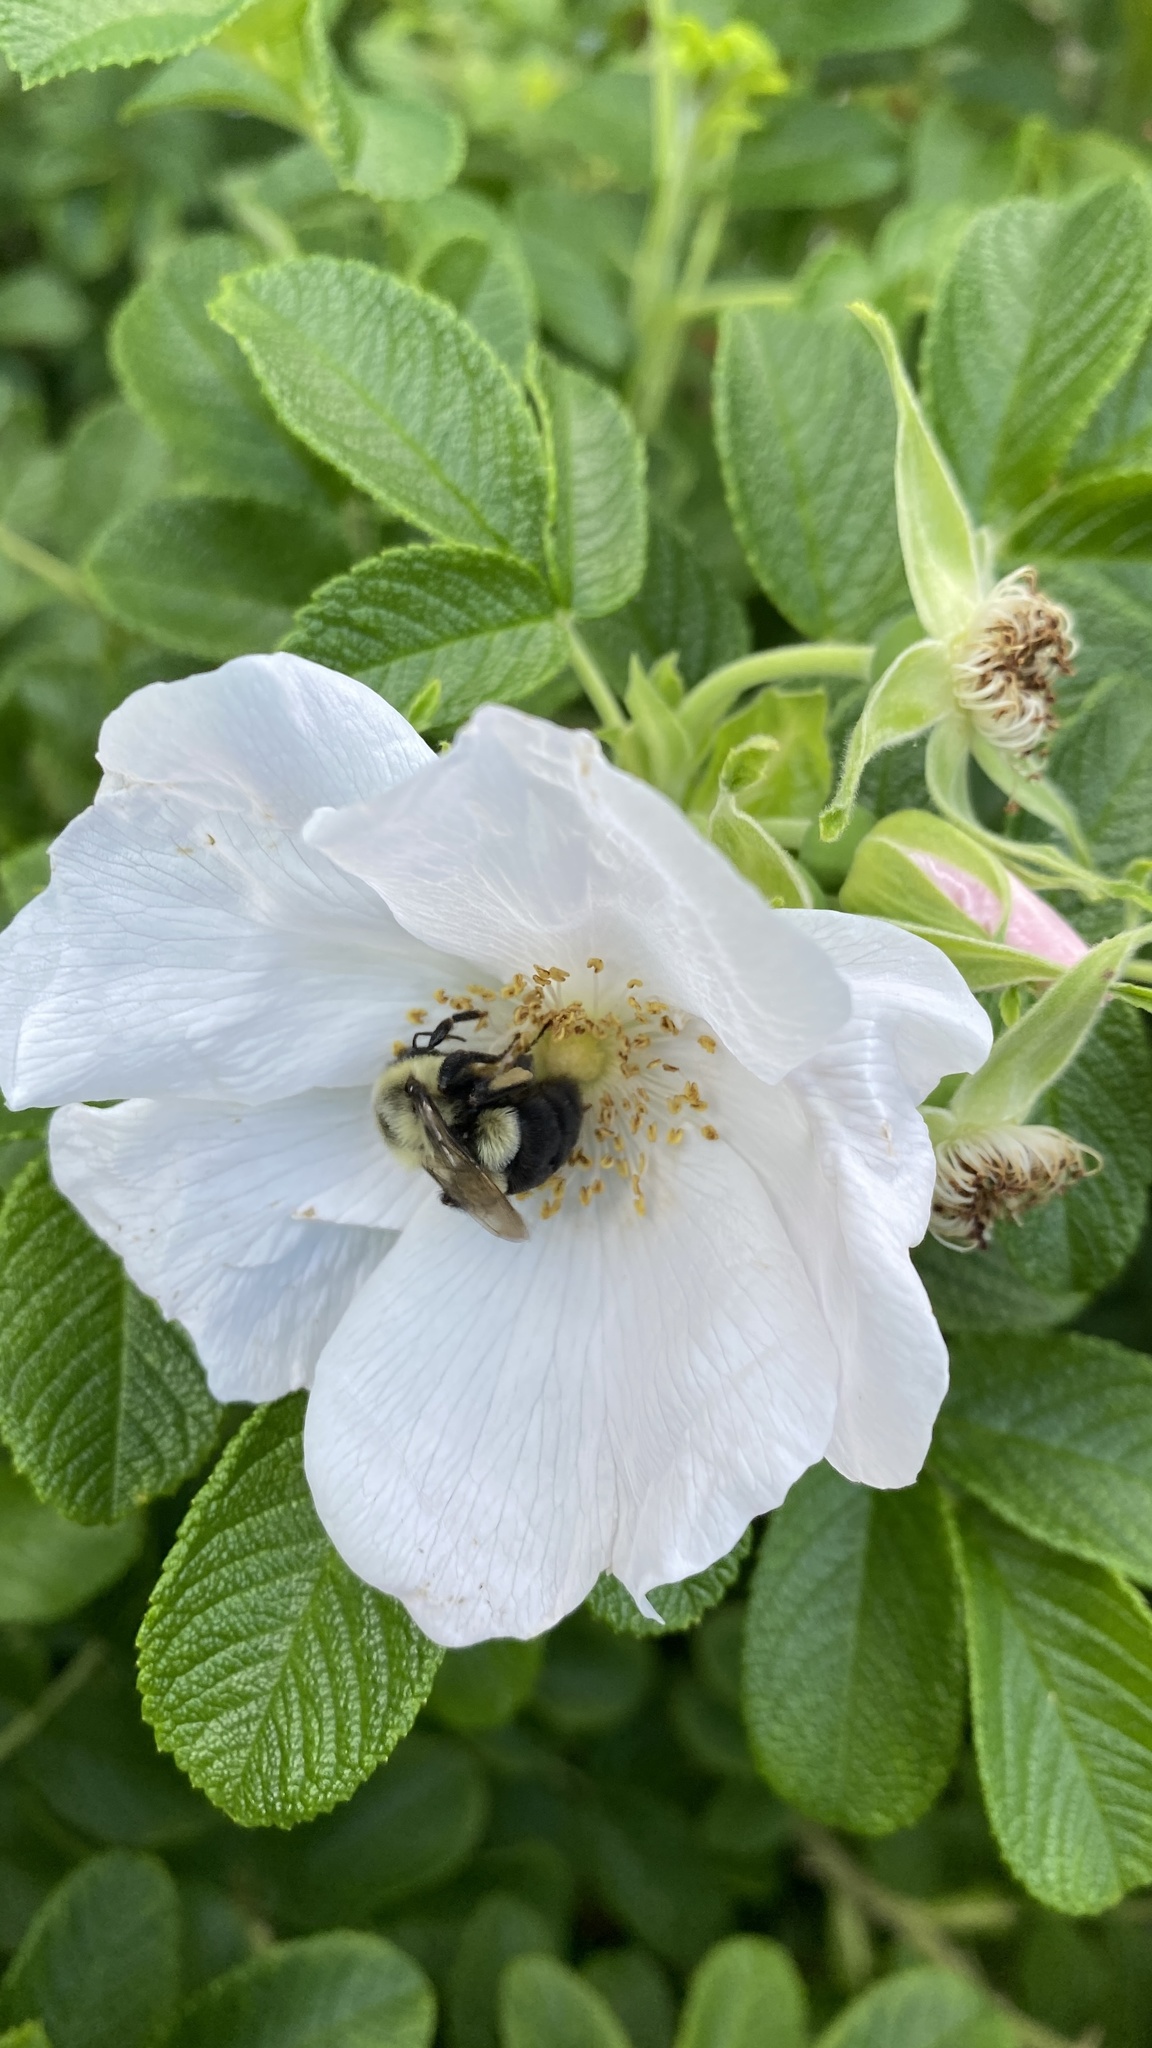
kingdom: Animalia
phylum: Arthropoda
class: Insecta
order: Hymenoptera
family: Apidae
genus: Bombus
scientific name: Bombus impatiens
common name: Common eastern bumble bee
